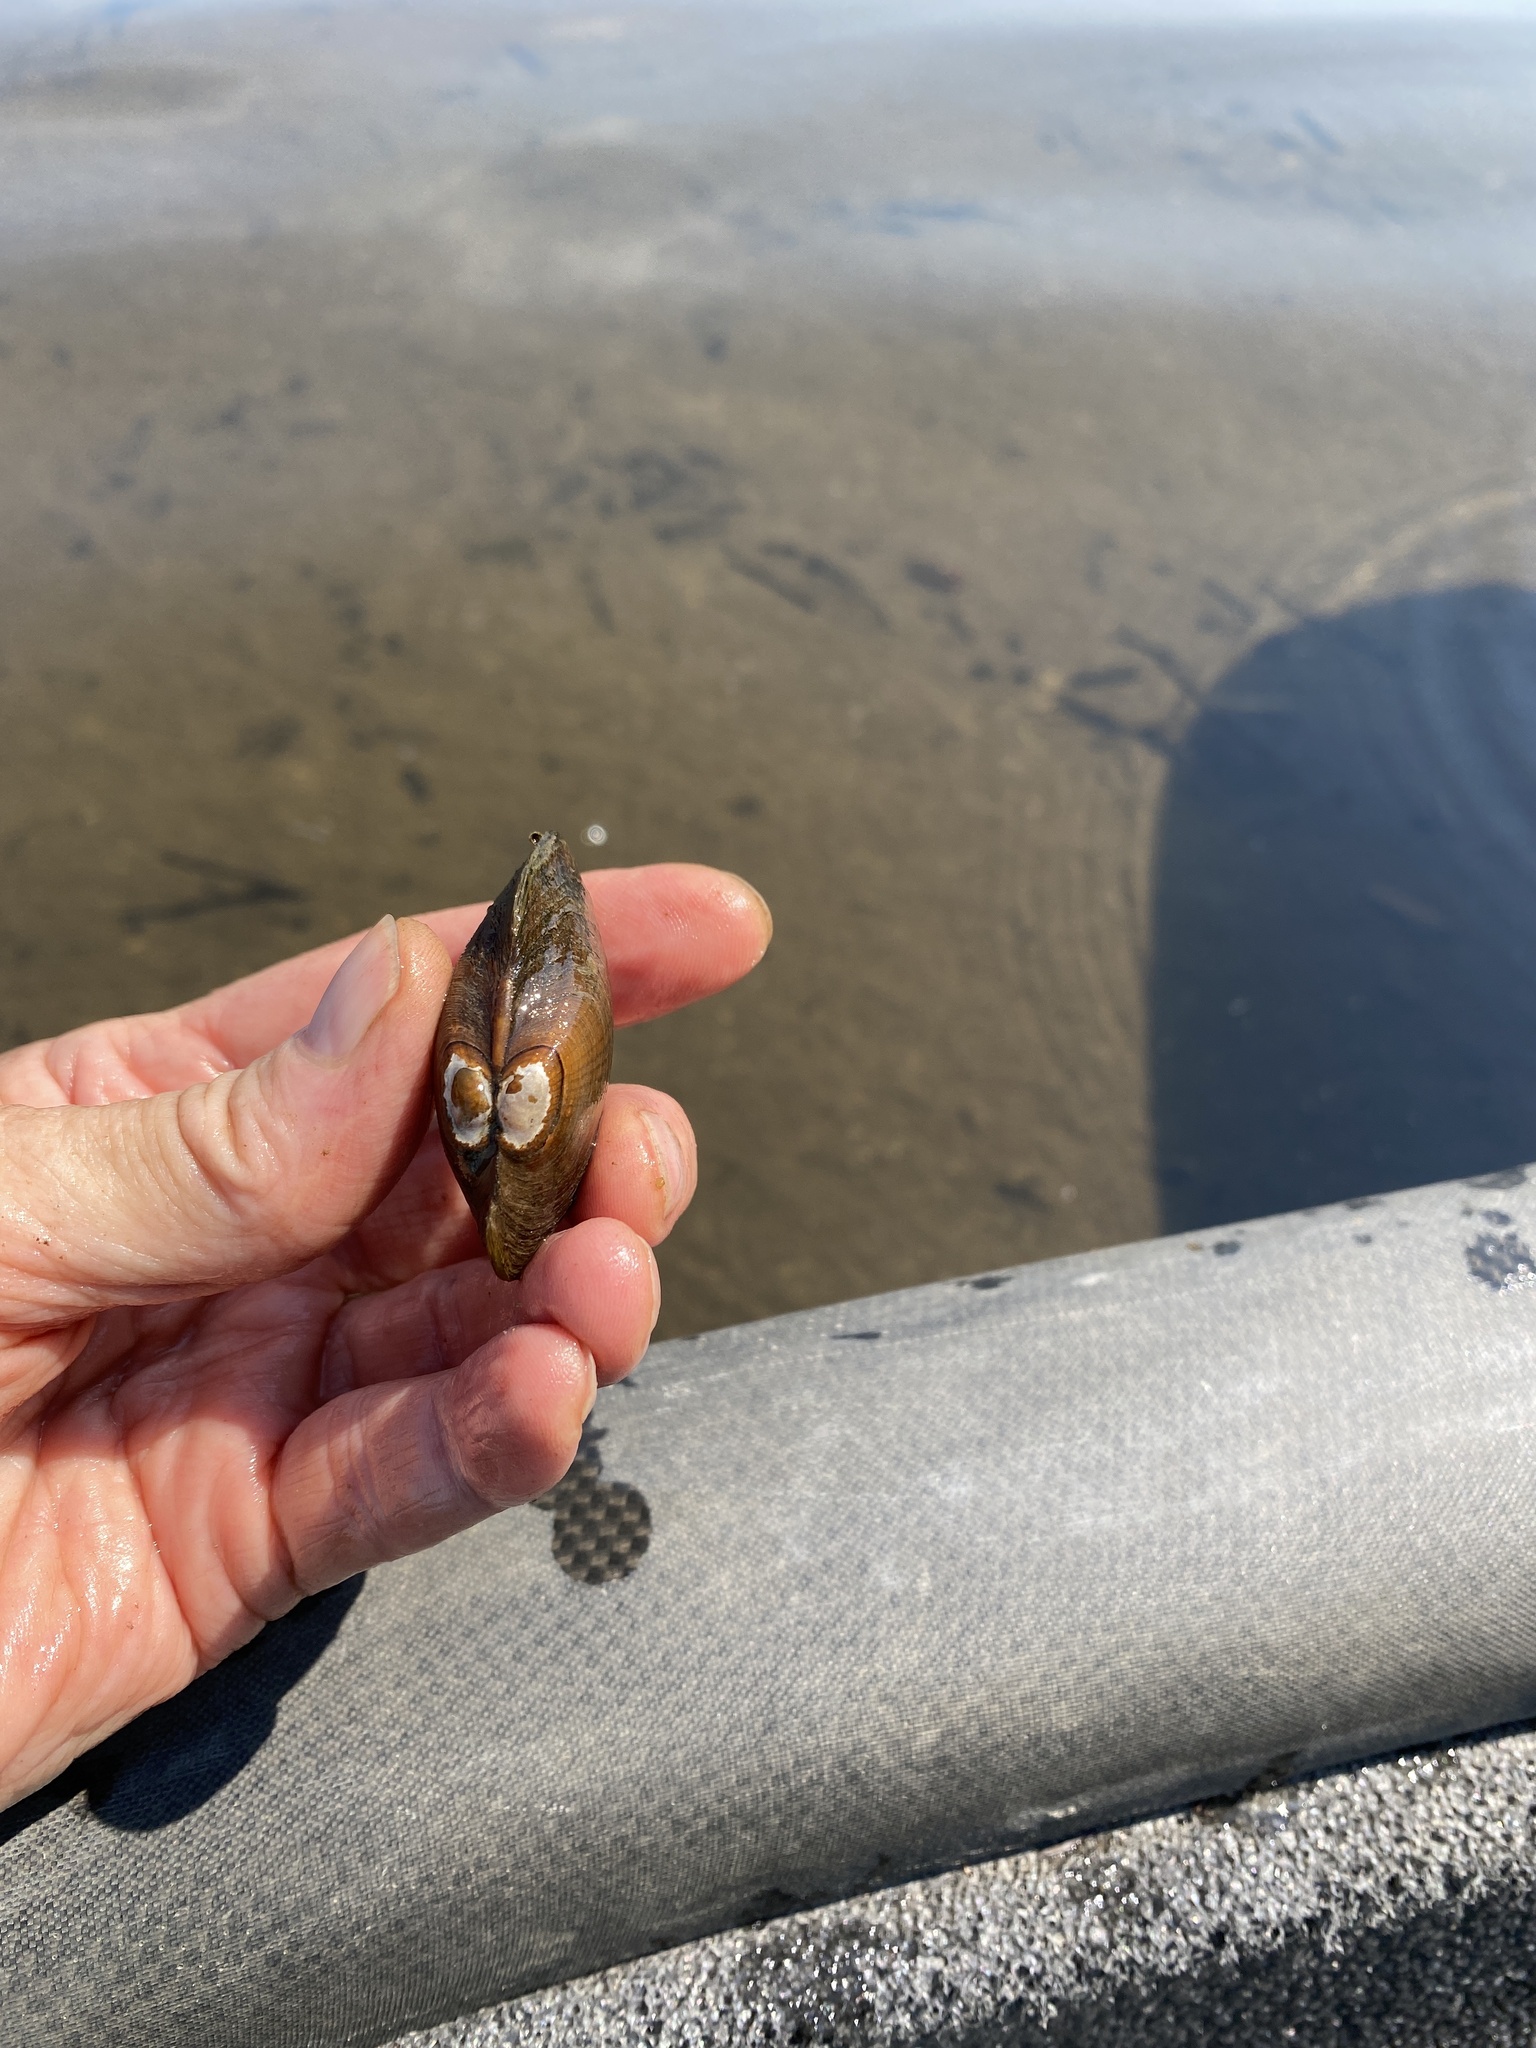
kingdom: Animalia
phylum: Mollusca
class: Bivalvia
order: Unionida
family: Unionidae
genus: Lampsilis
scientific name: Lampsilis radiata
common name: Eastern lampmussel
